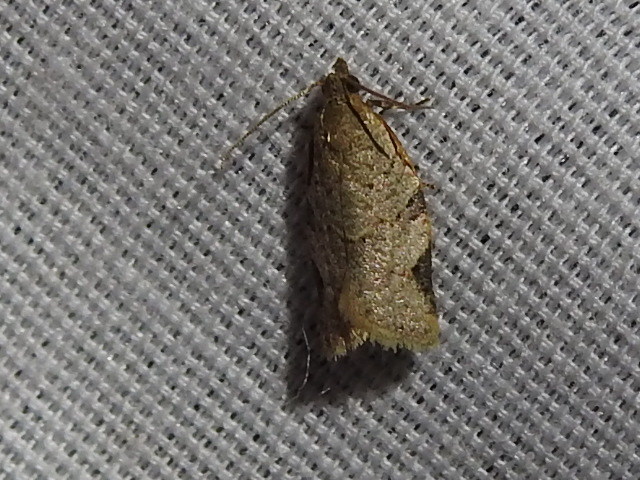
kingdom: Animalia
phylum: Arthropoda
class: Insecta
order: Lepidoptera
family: Tortricidae
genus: Clepsis
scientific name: Clepsis virescana
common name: Greenish apple moth
